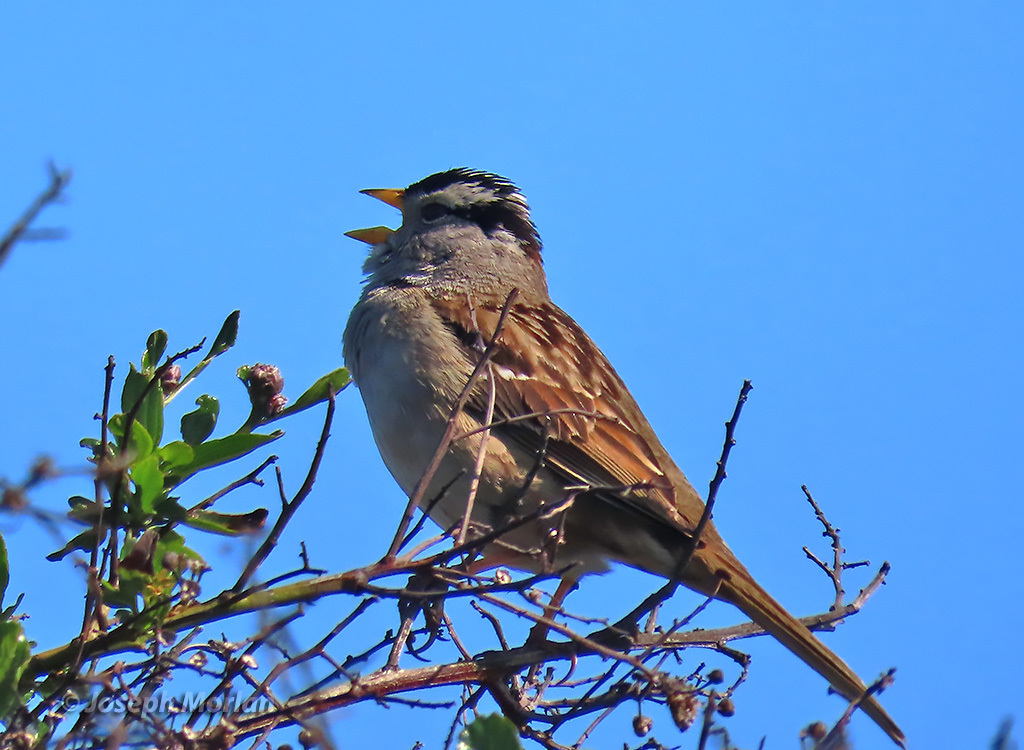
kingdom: Animalia
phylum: Chordata
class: Aves
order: Passeriformes
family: Passerellidae
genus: Zonotrichia
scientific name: Zonotrichia leucophrys
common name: White-crowned sparrow
